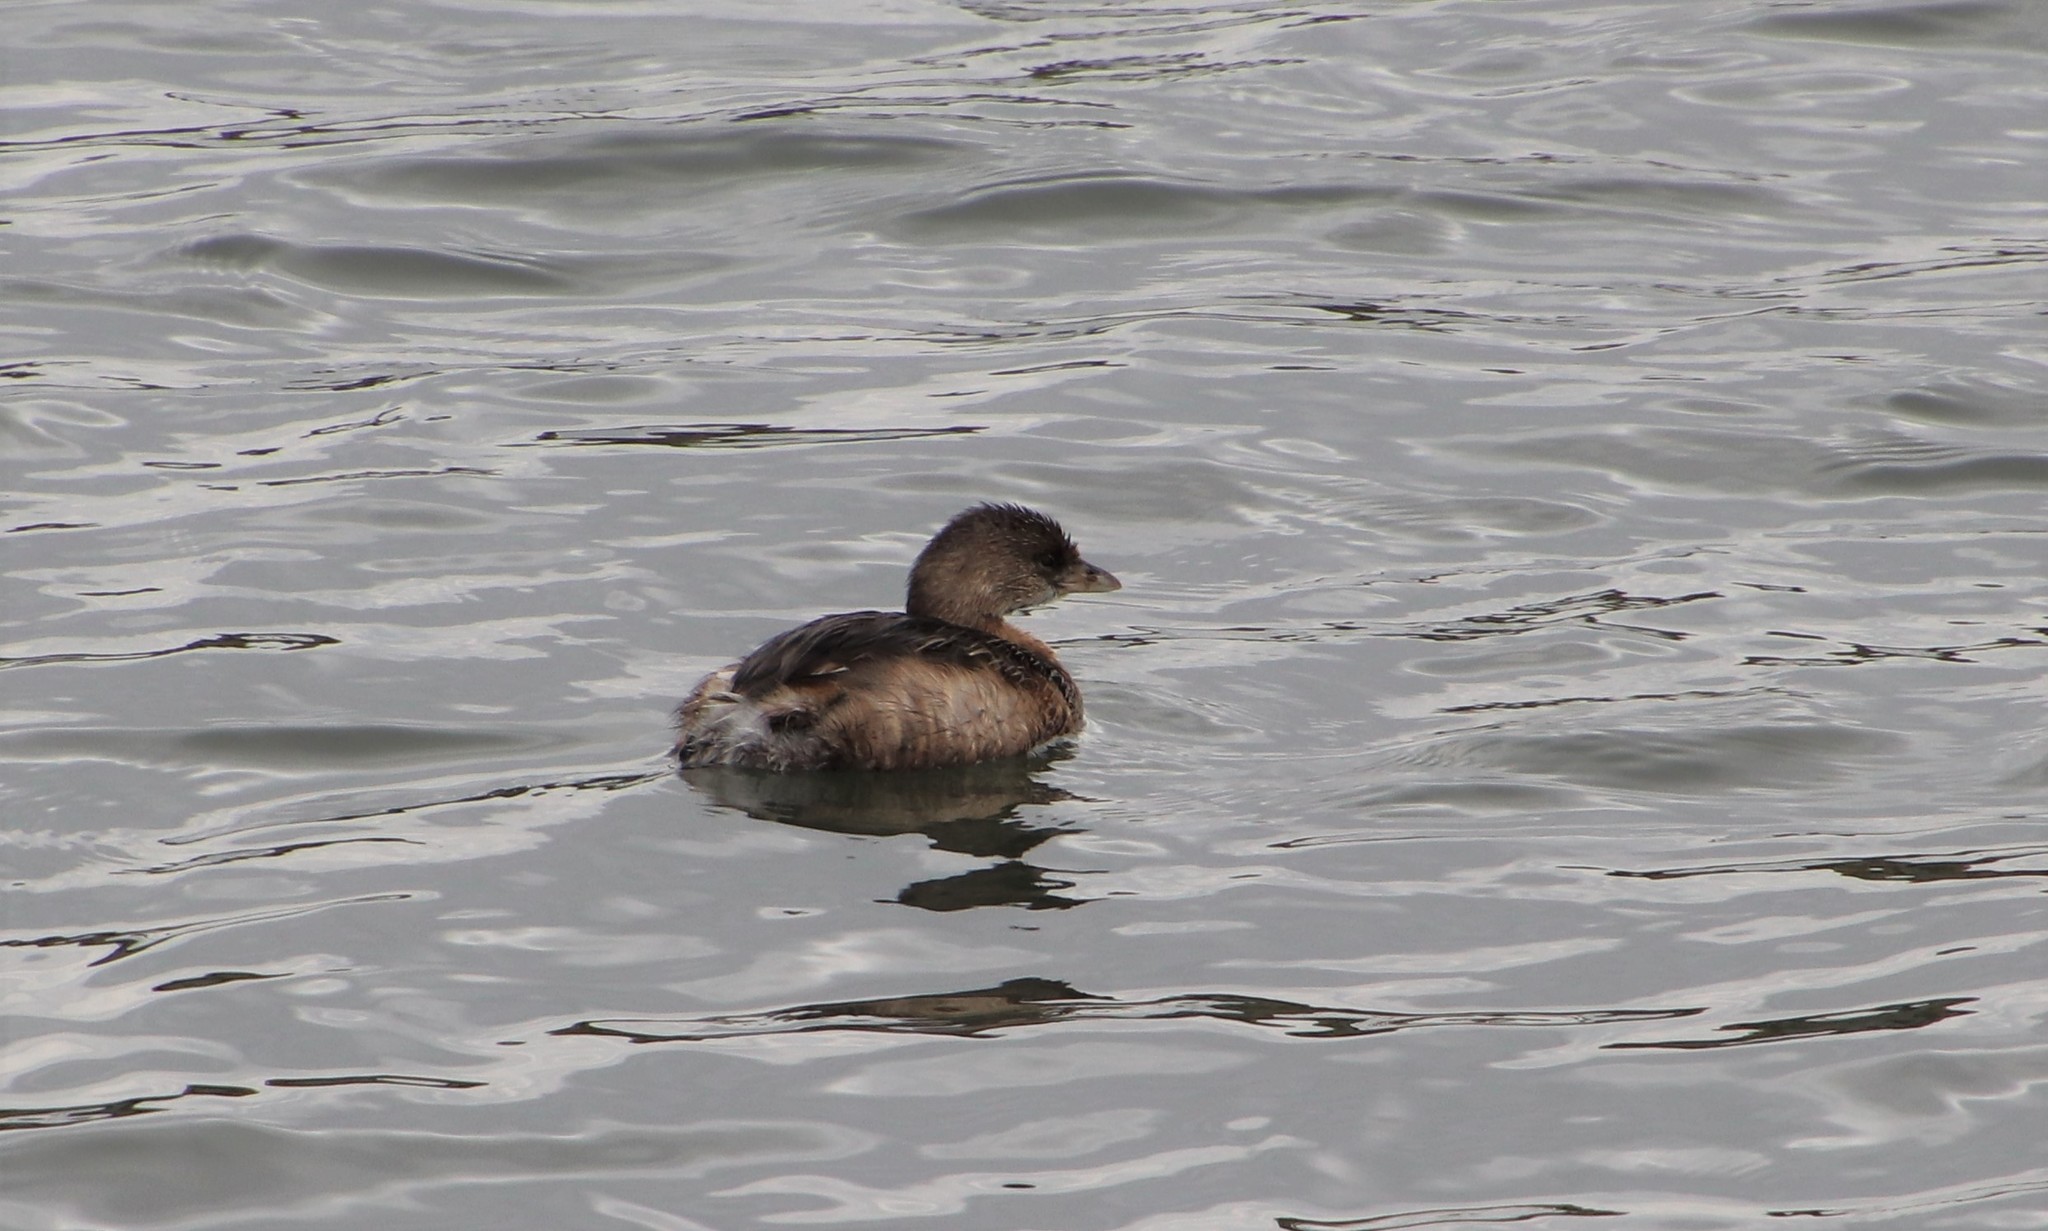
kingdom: Animalia
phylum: Chordata
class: Aves
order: Podicipediformes
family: Podicipedidae
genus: Podilymbus
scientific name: Podilymbus podiceps
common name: Pied-billed grebe
